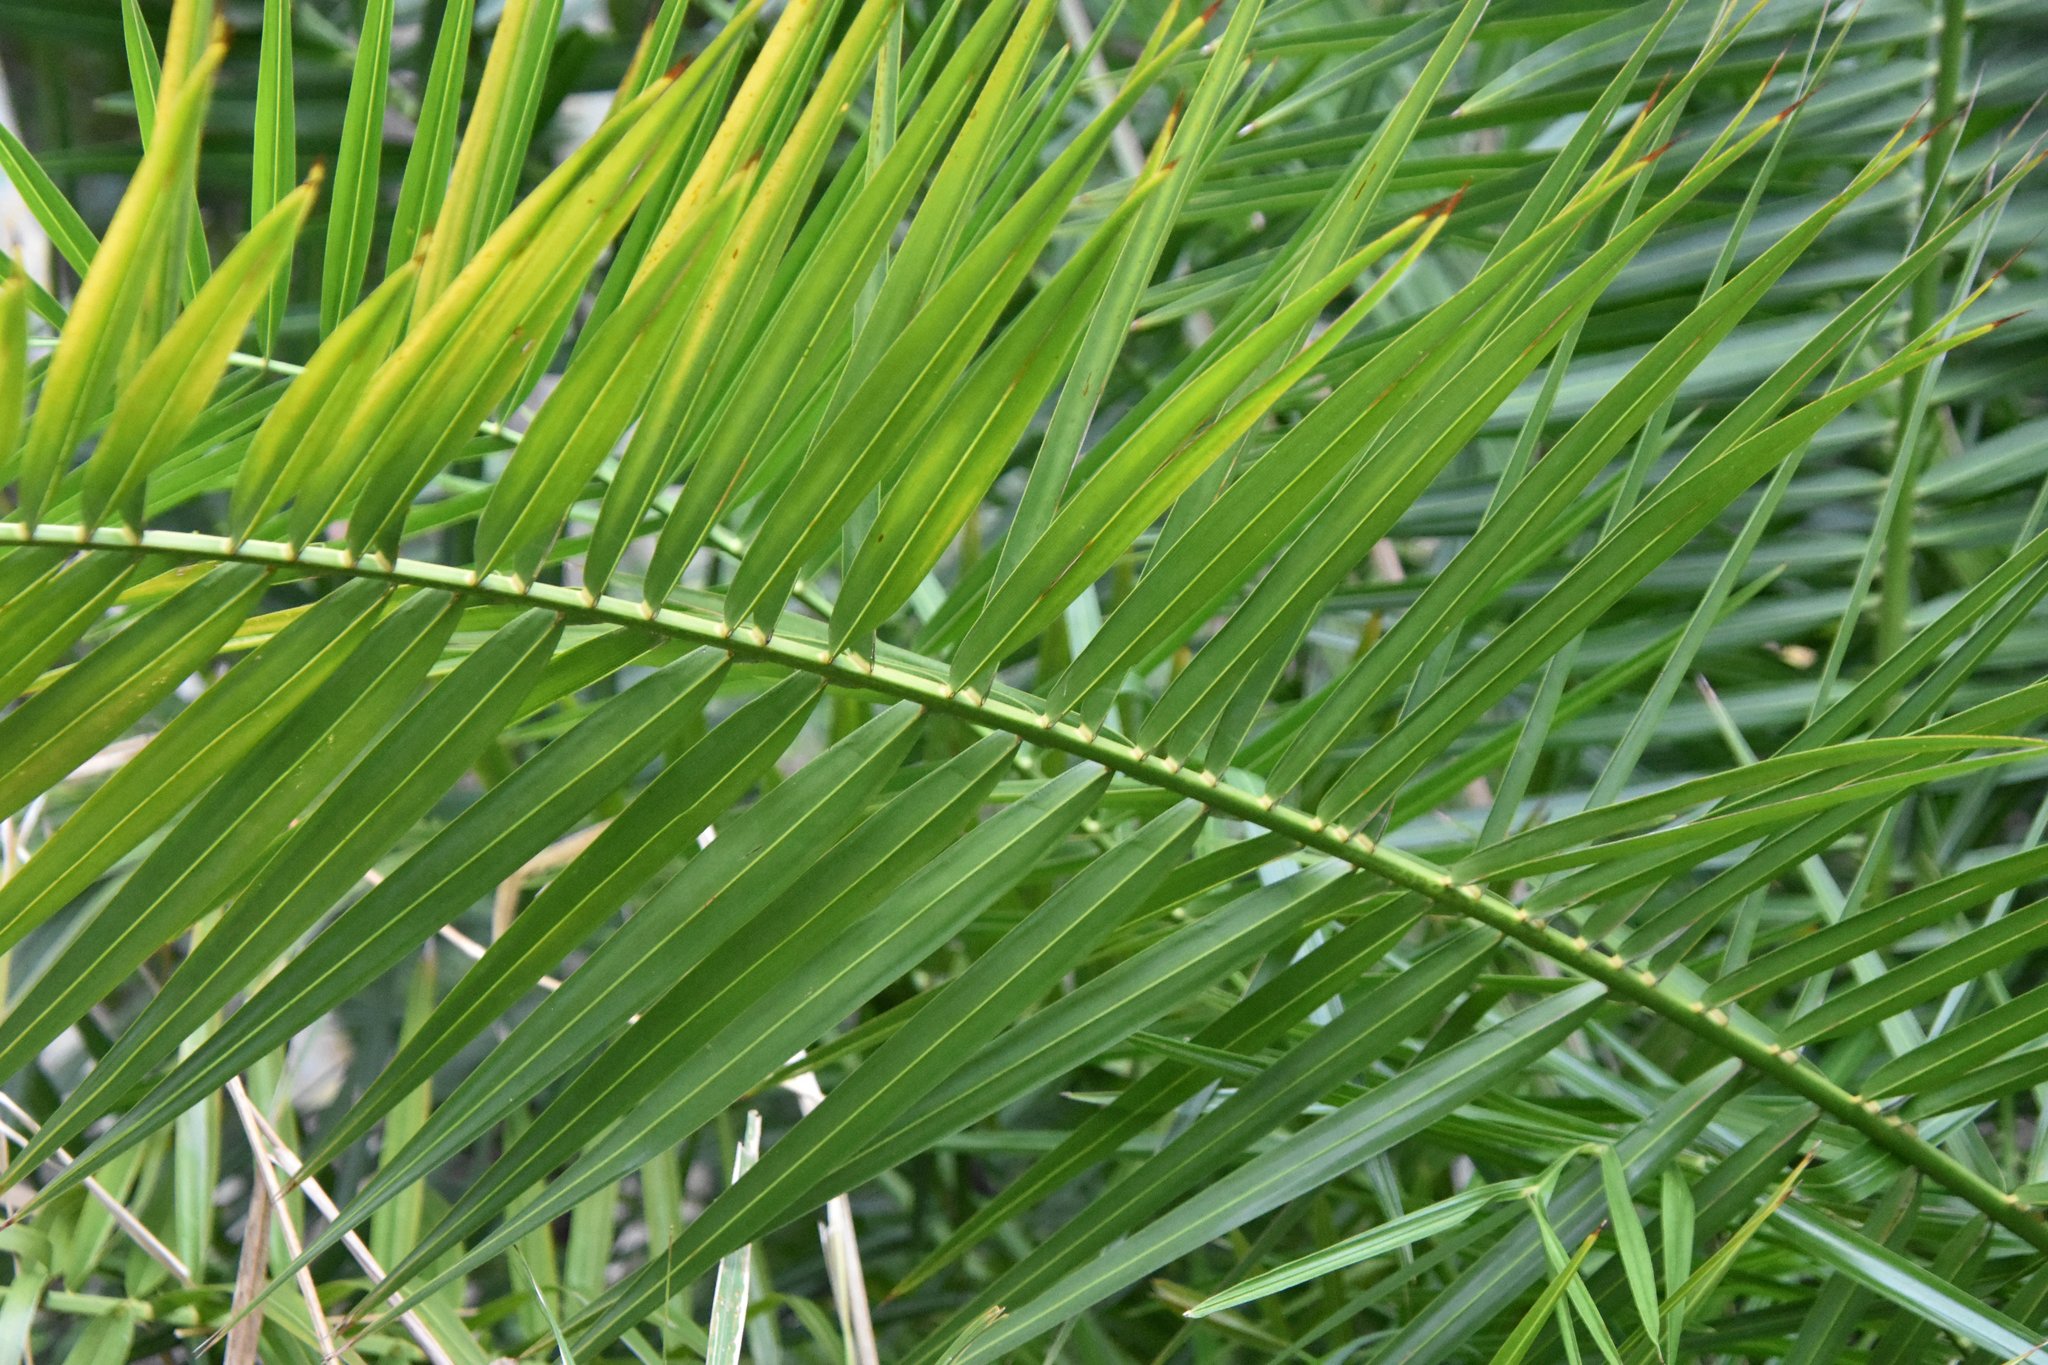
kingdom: Plantae
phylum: Tracheophyta
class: Liliopsida
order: Arecales
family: Arecaceae
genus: Phoenix
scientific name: Phoenix reclinata
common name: Senegal date palm
